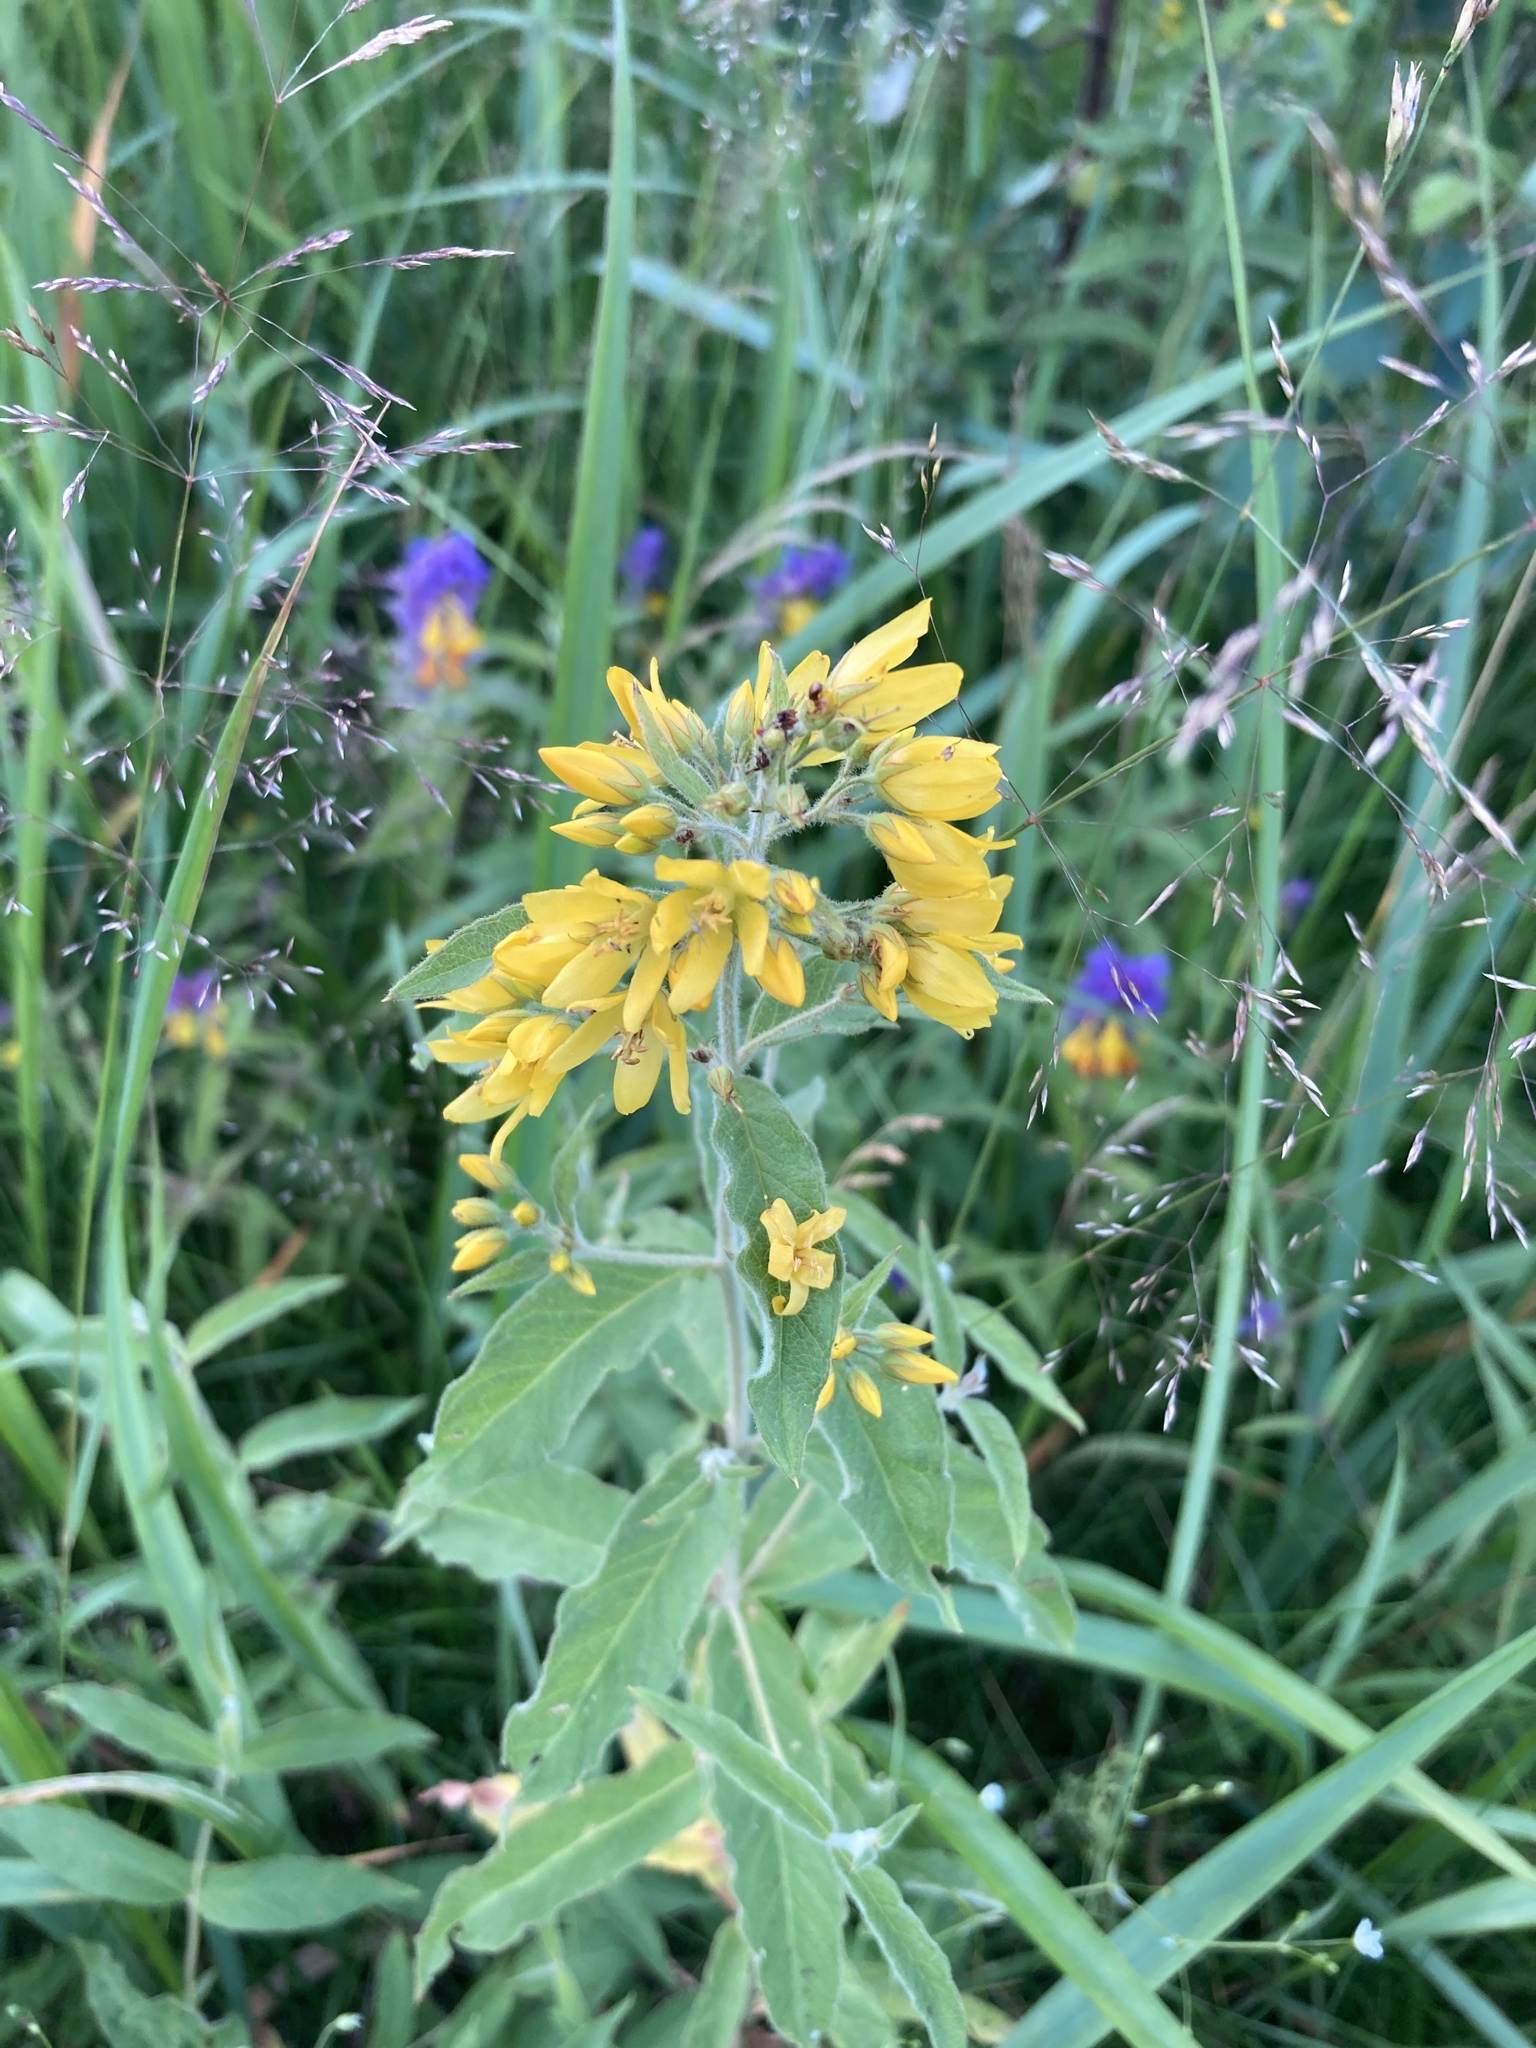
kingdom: Plantae
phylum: Tracheophyta
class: Magnoliopsida
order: Ericales
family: Primulaceae
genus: Lysimachia
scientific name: Lysimachia vulgaris
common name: Yellow loosestrife
